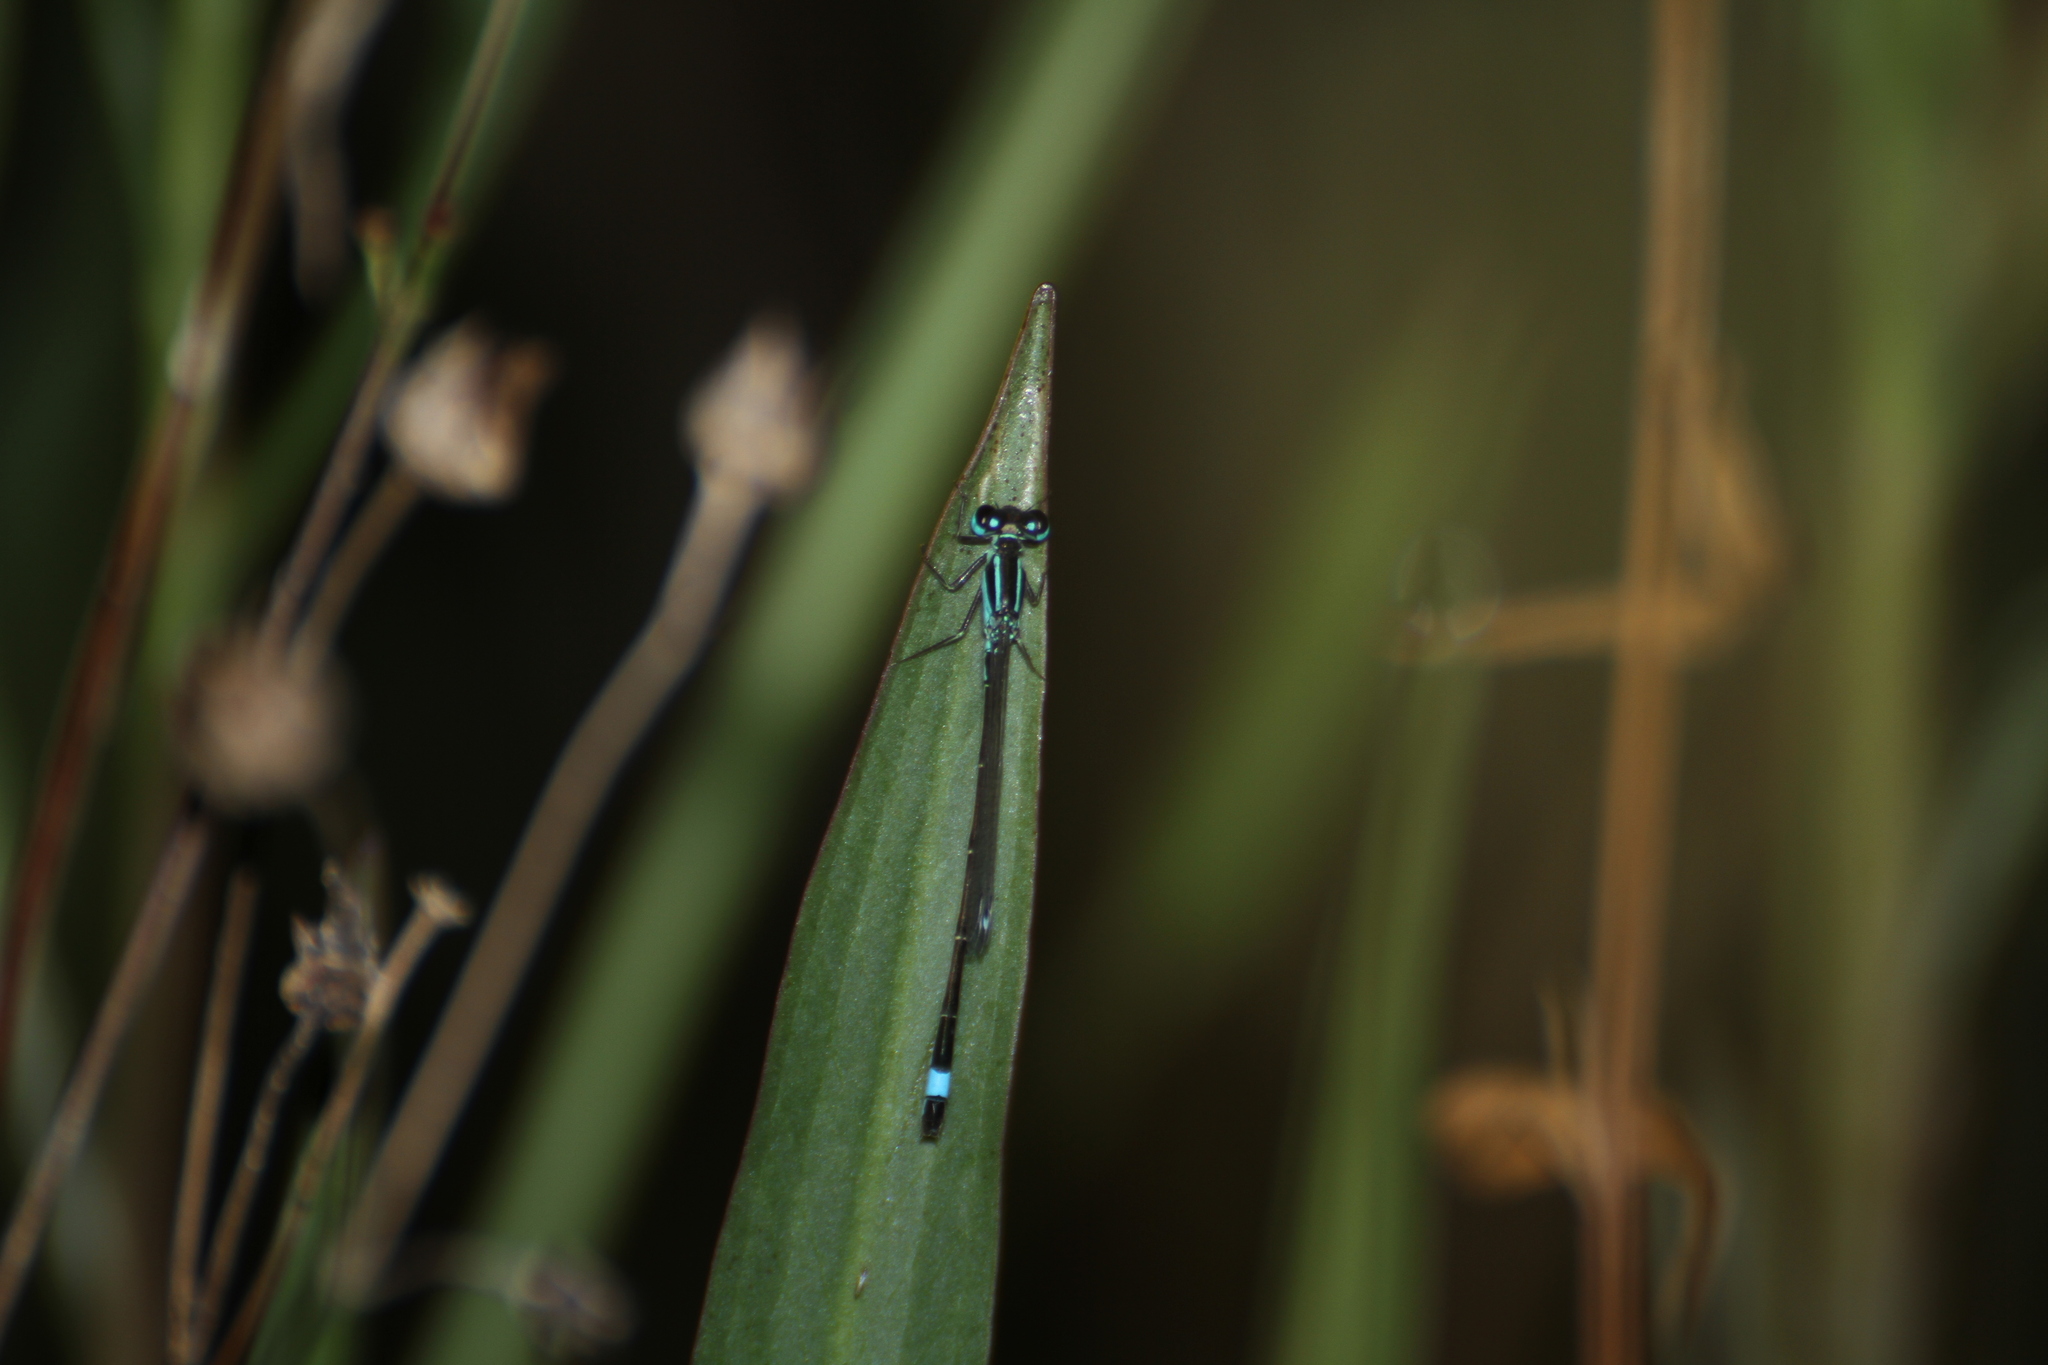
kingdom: Animalia
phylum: Arthropoda
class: Insecta
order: Odonata
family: Coenagrionidae
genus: Ischnura
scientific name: Ischnura elegans
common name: Blue-tailed damselfly
